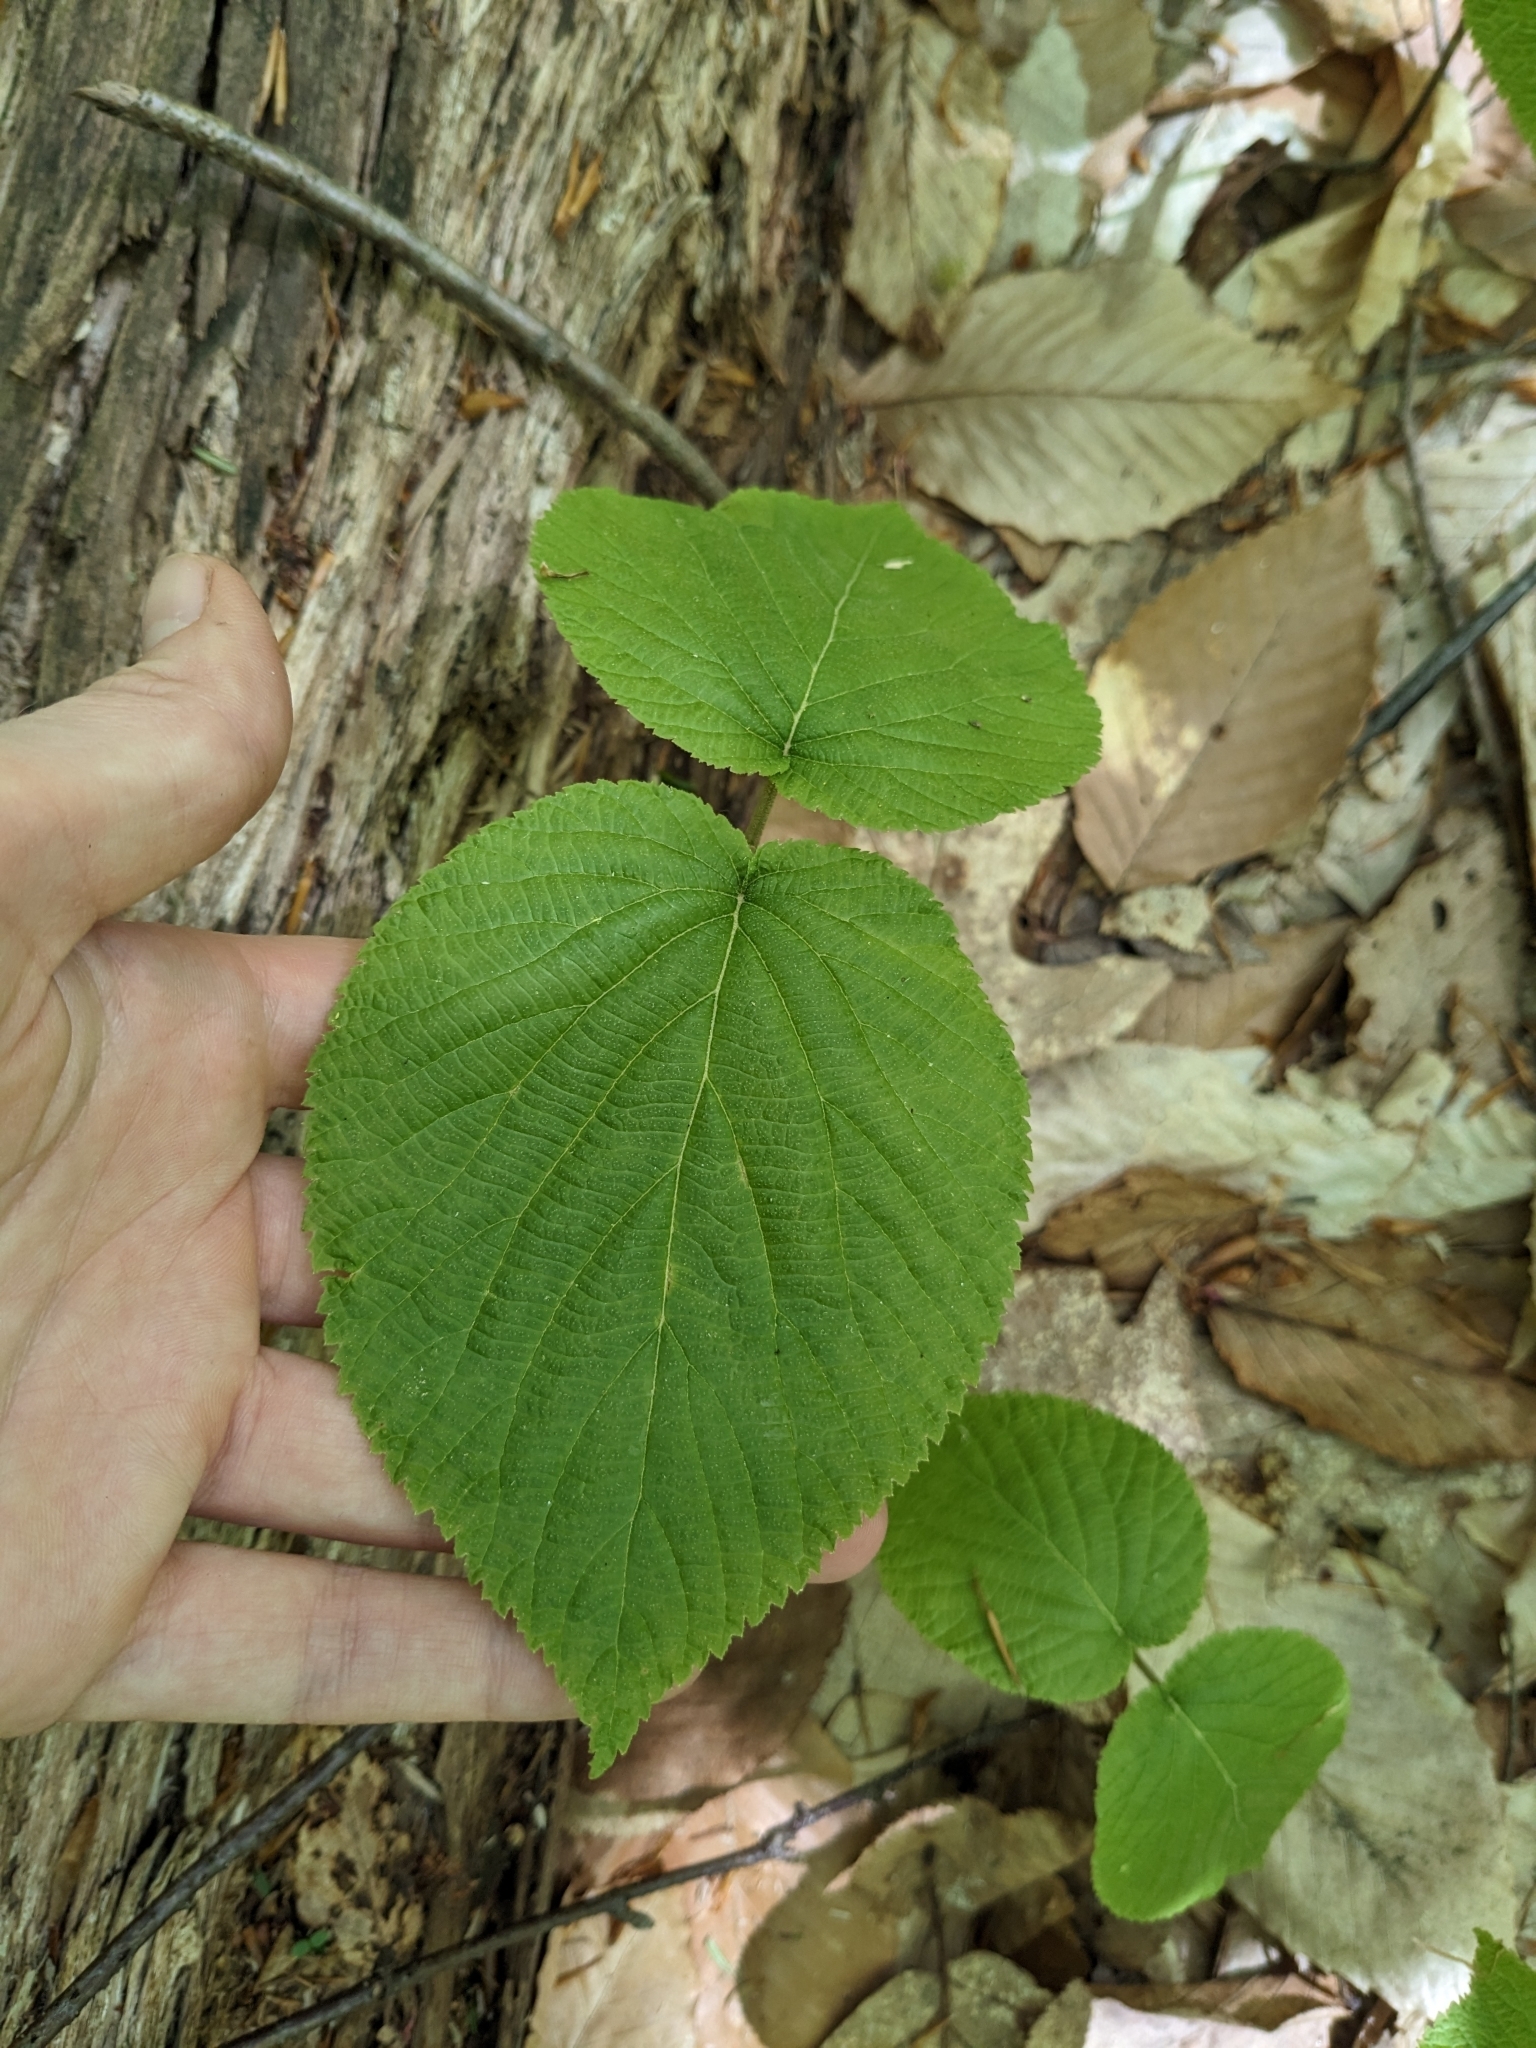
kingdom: Plantae
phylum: Tracheophyta
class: Magnoliopsida
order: Dipsacales
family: Viburnaceae
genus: Viburnum
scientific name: Viburnum lantanoides
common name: Hobblebush
